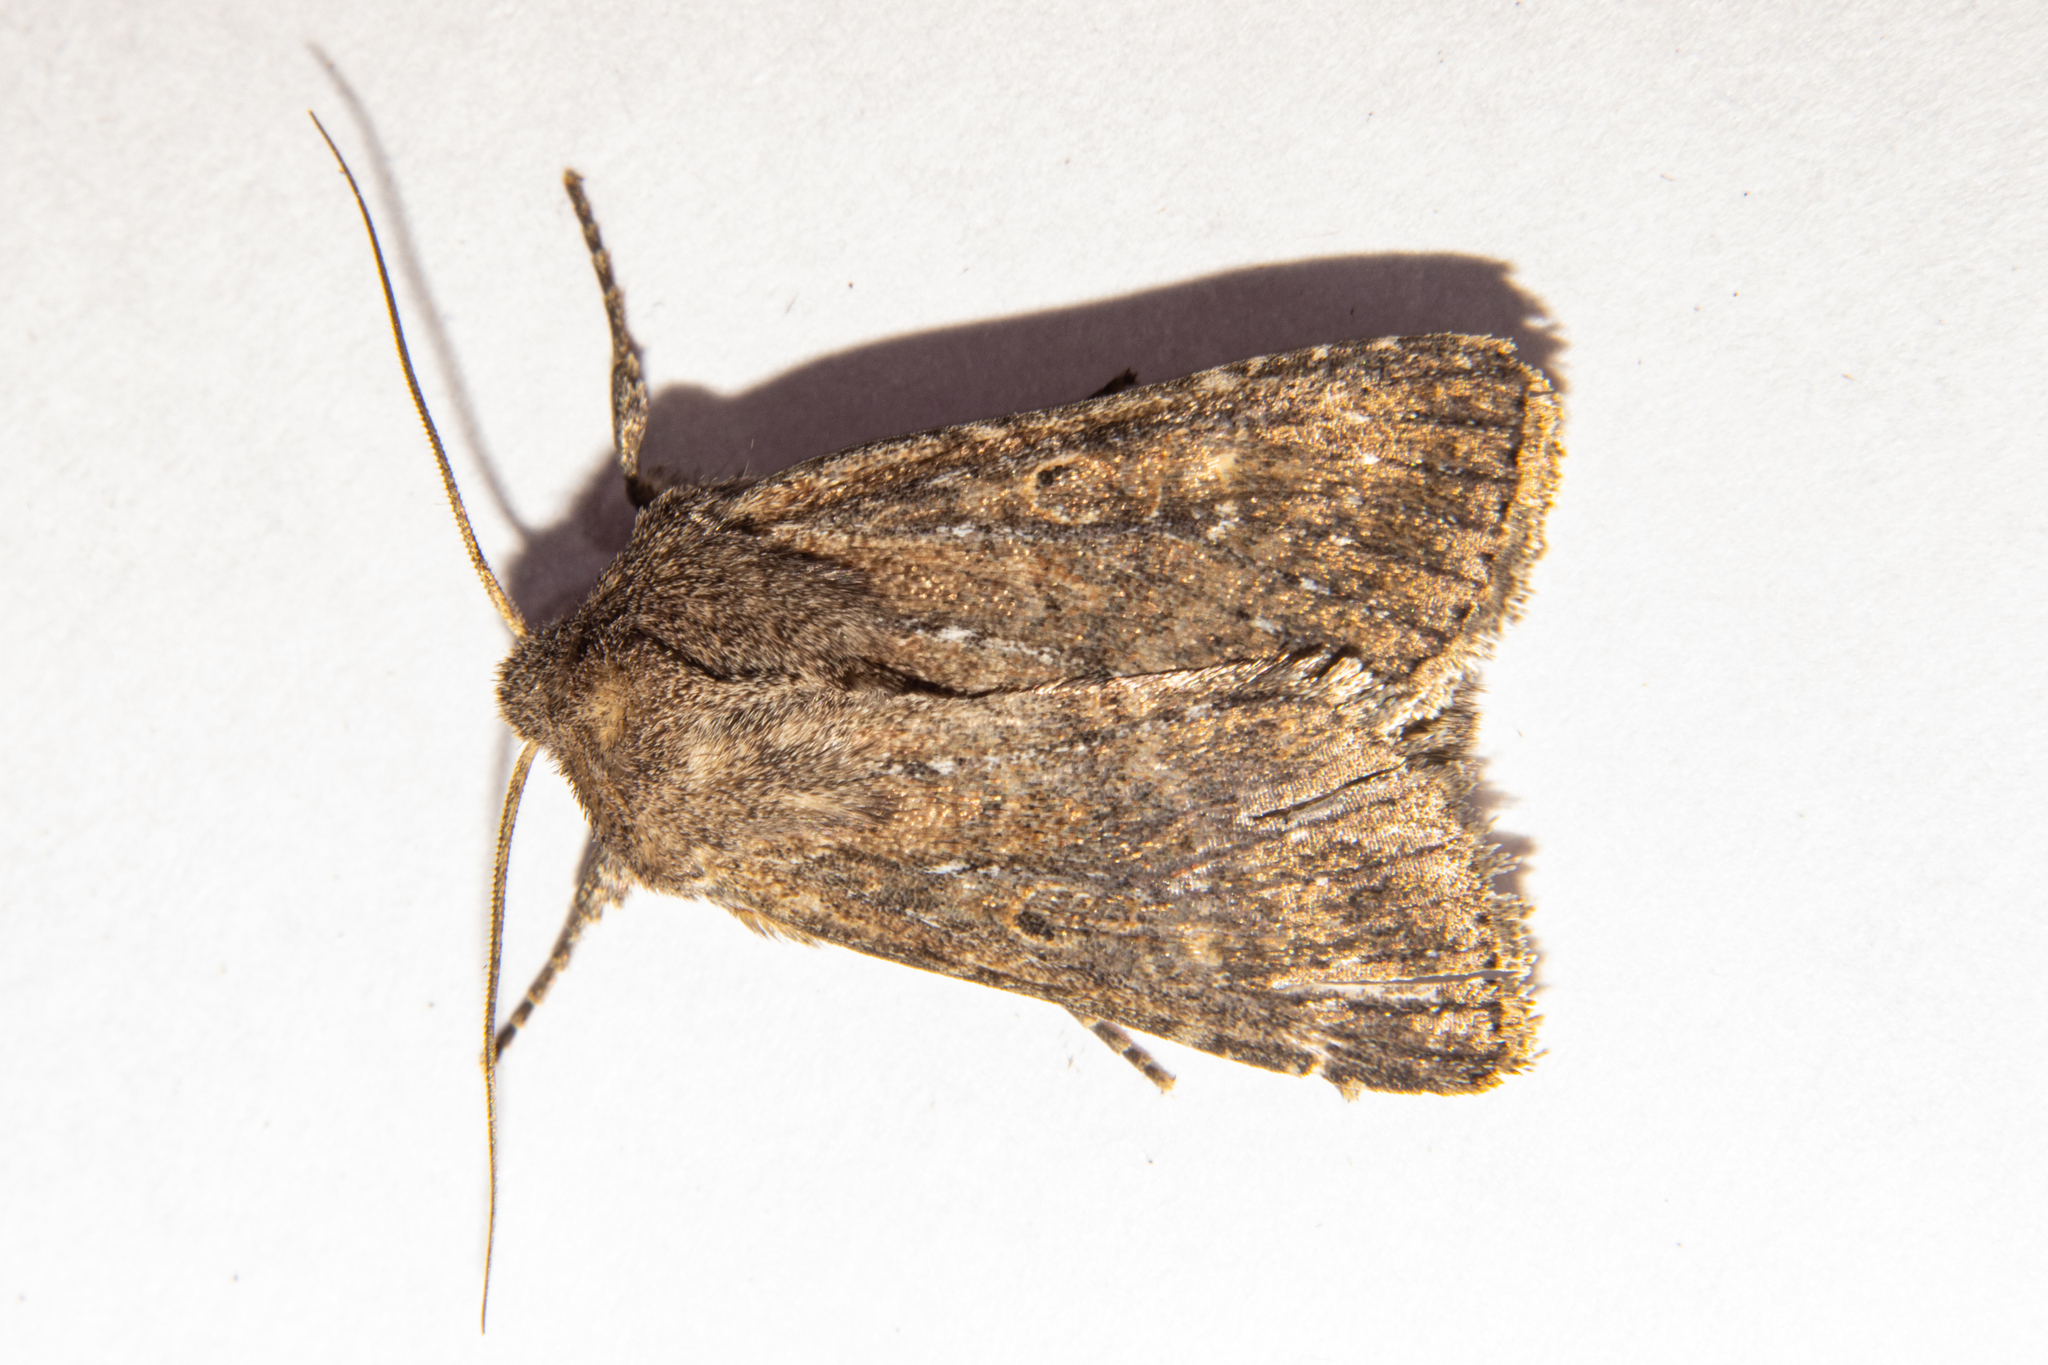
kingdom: Animalia
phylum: Arthropoda
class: Insecta
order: Lepidoptera
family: Noctuidae
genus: Physetica
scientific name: Physetica
